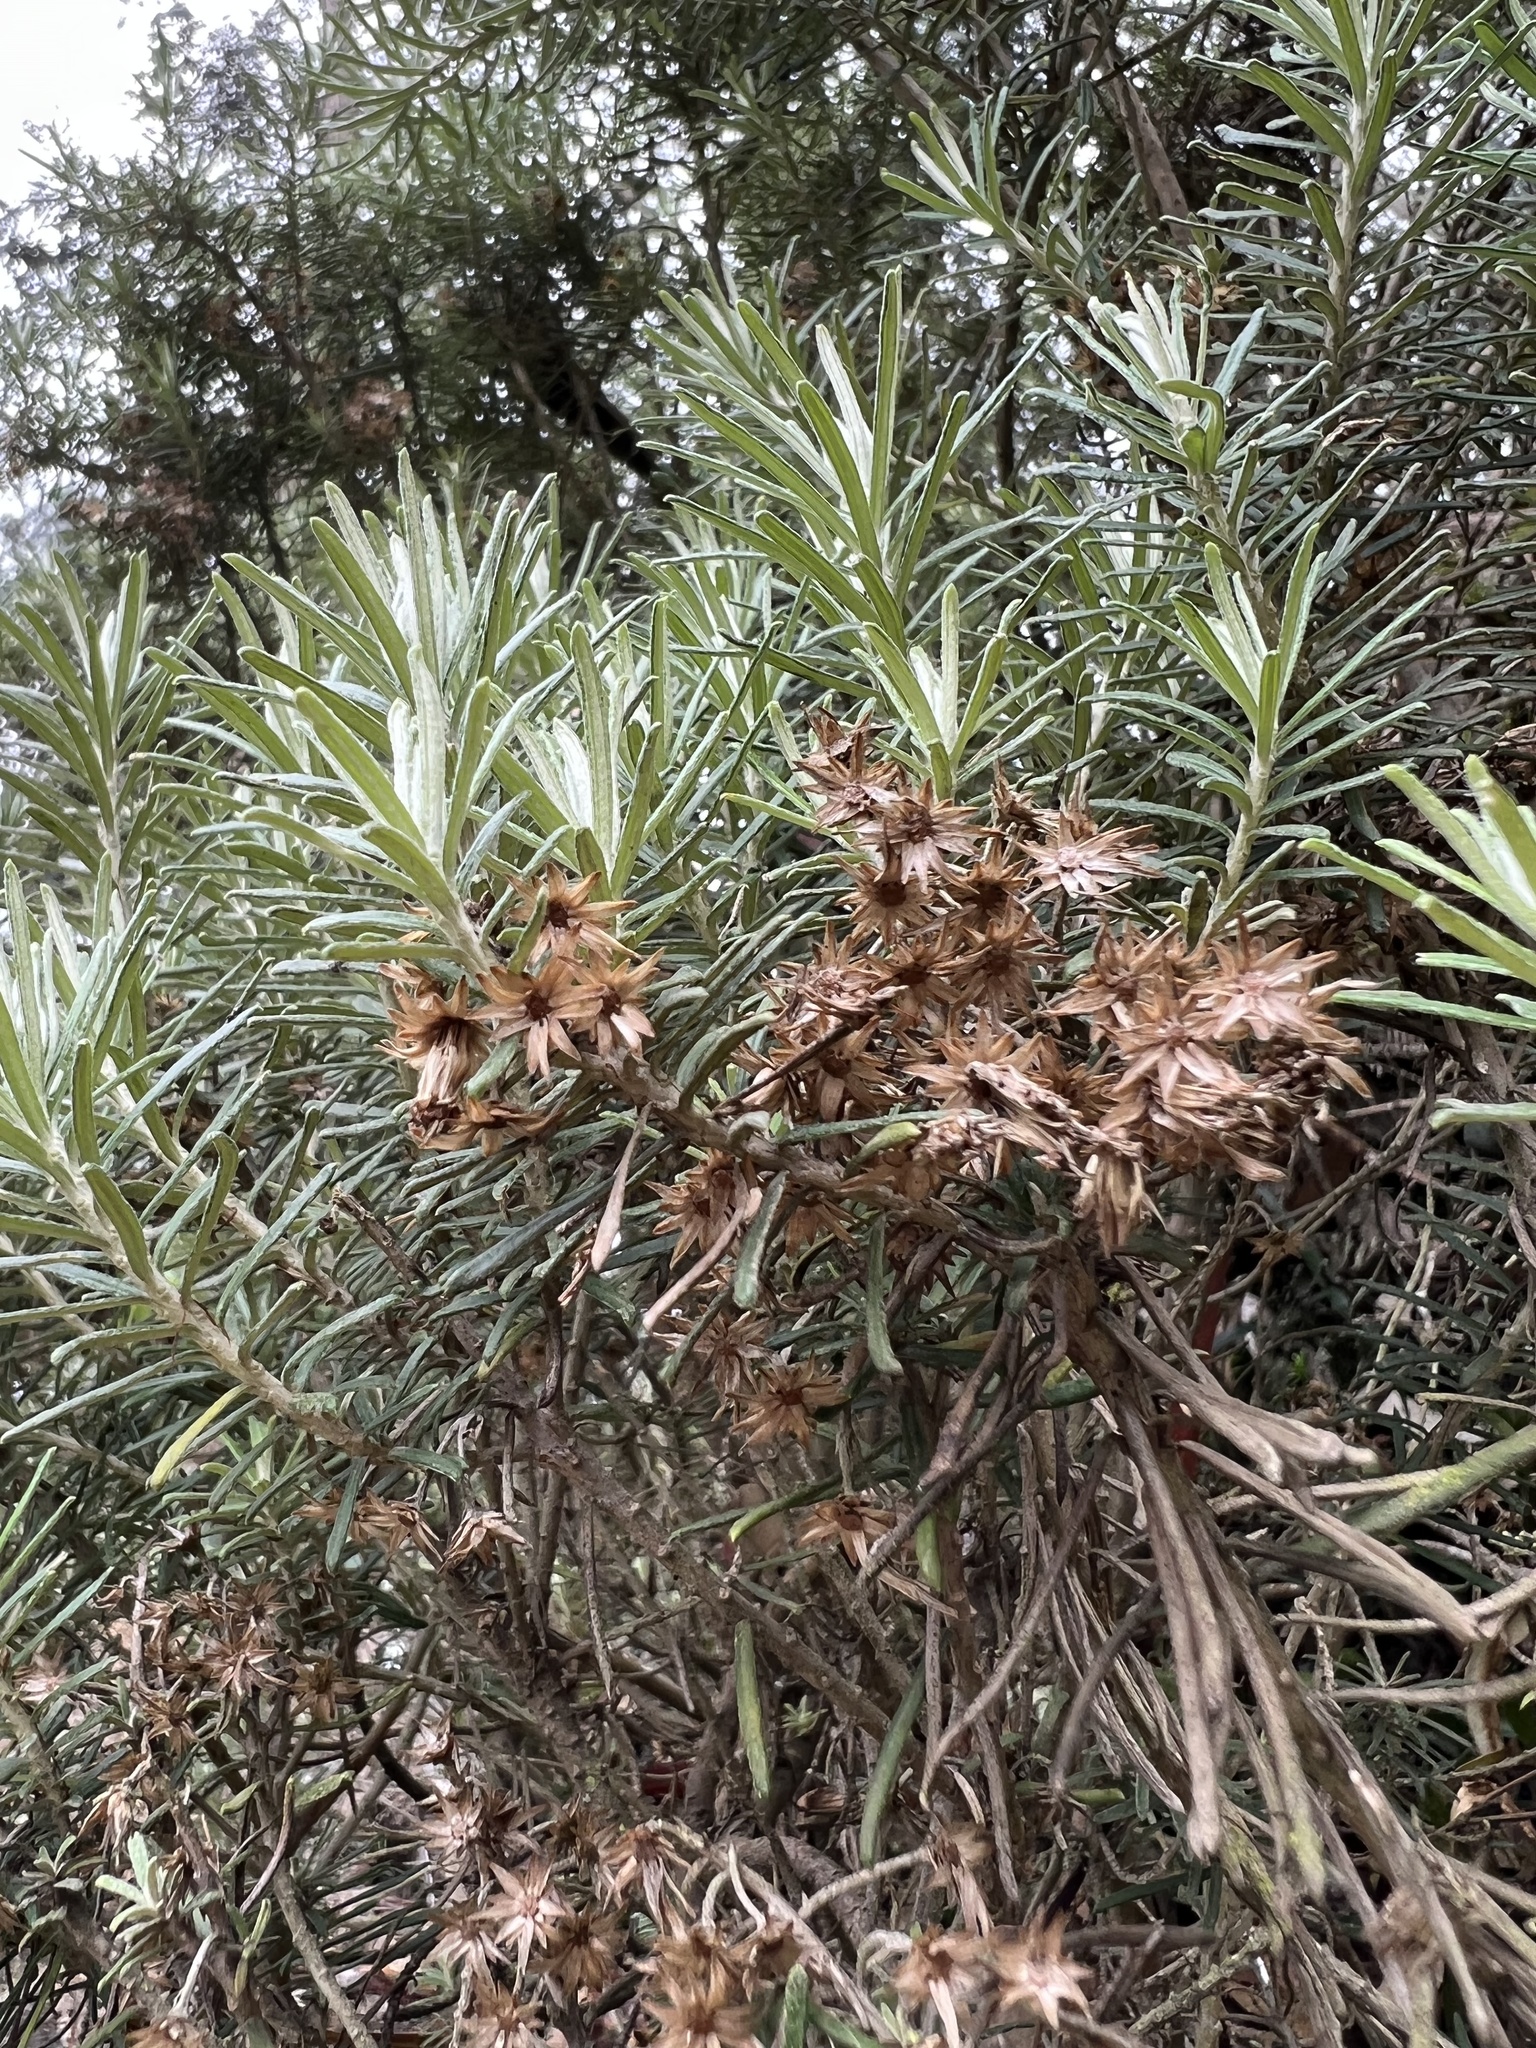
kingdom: Plantae
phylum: Tracheophyta
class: Magnoliopsida
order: Asterales
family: Asteraceae
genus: Linochilus
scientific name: Linochilus rosmarinifolius
